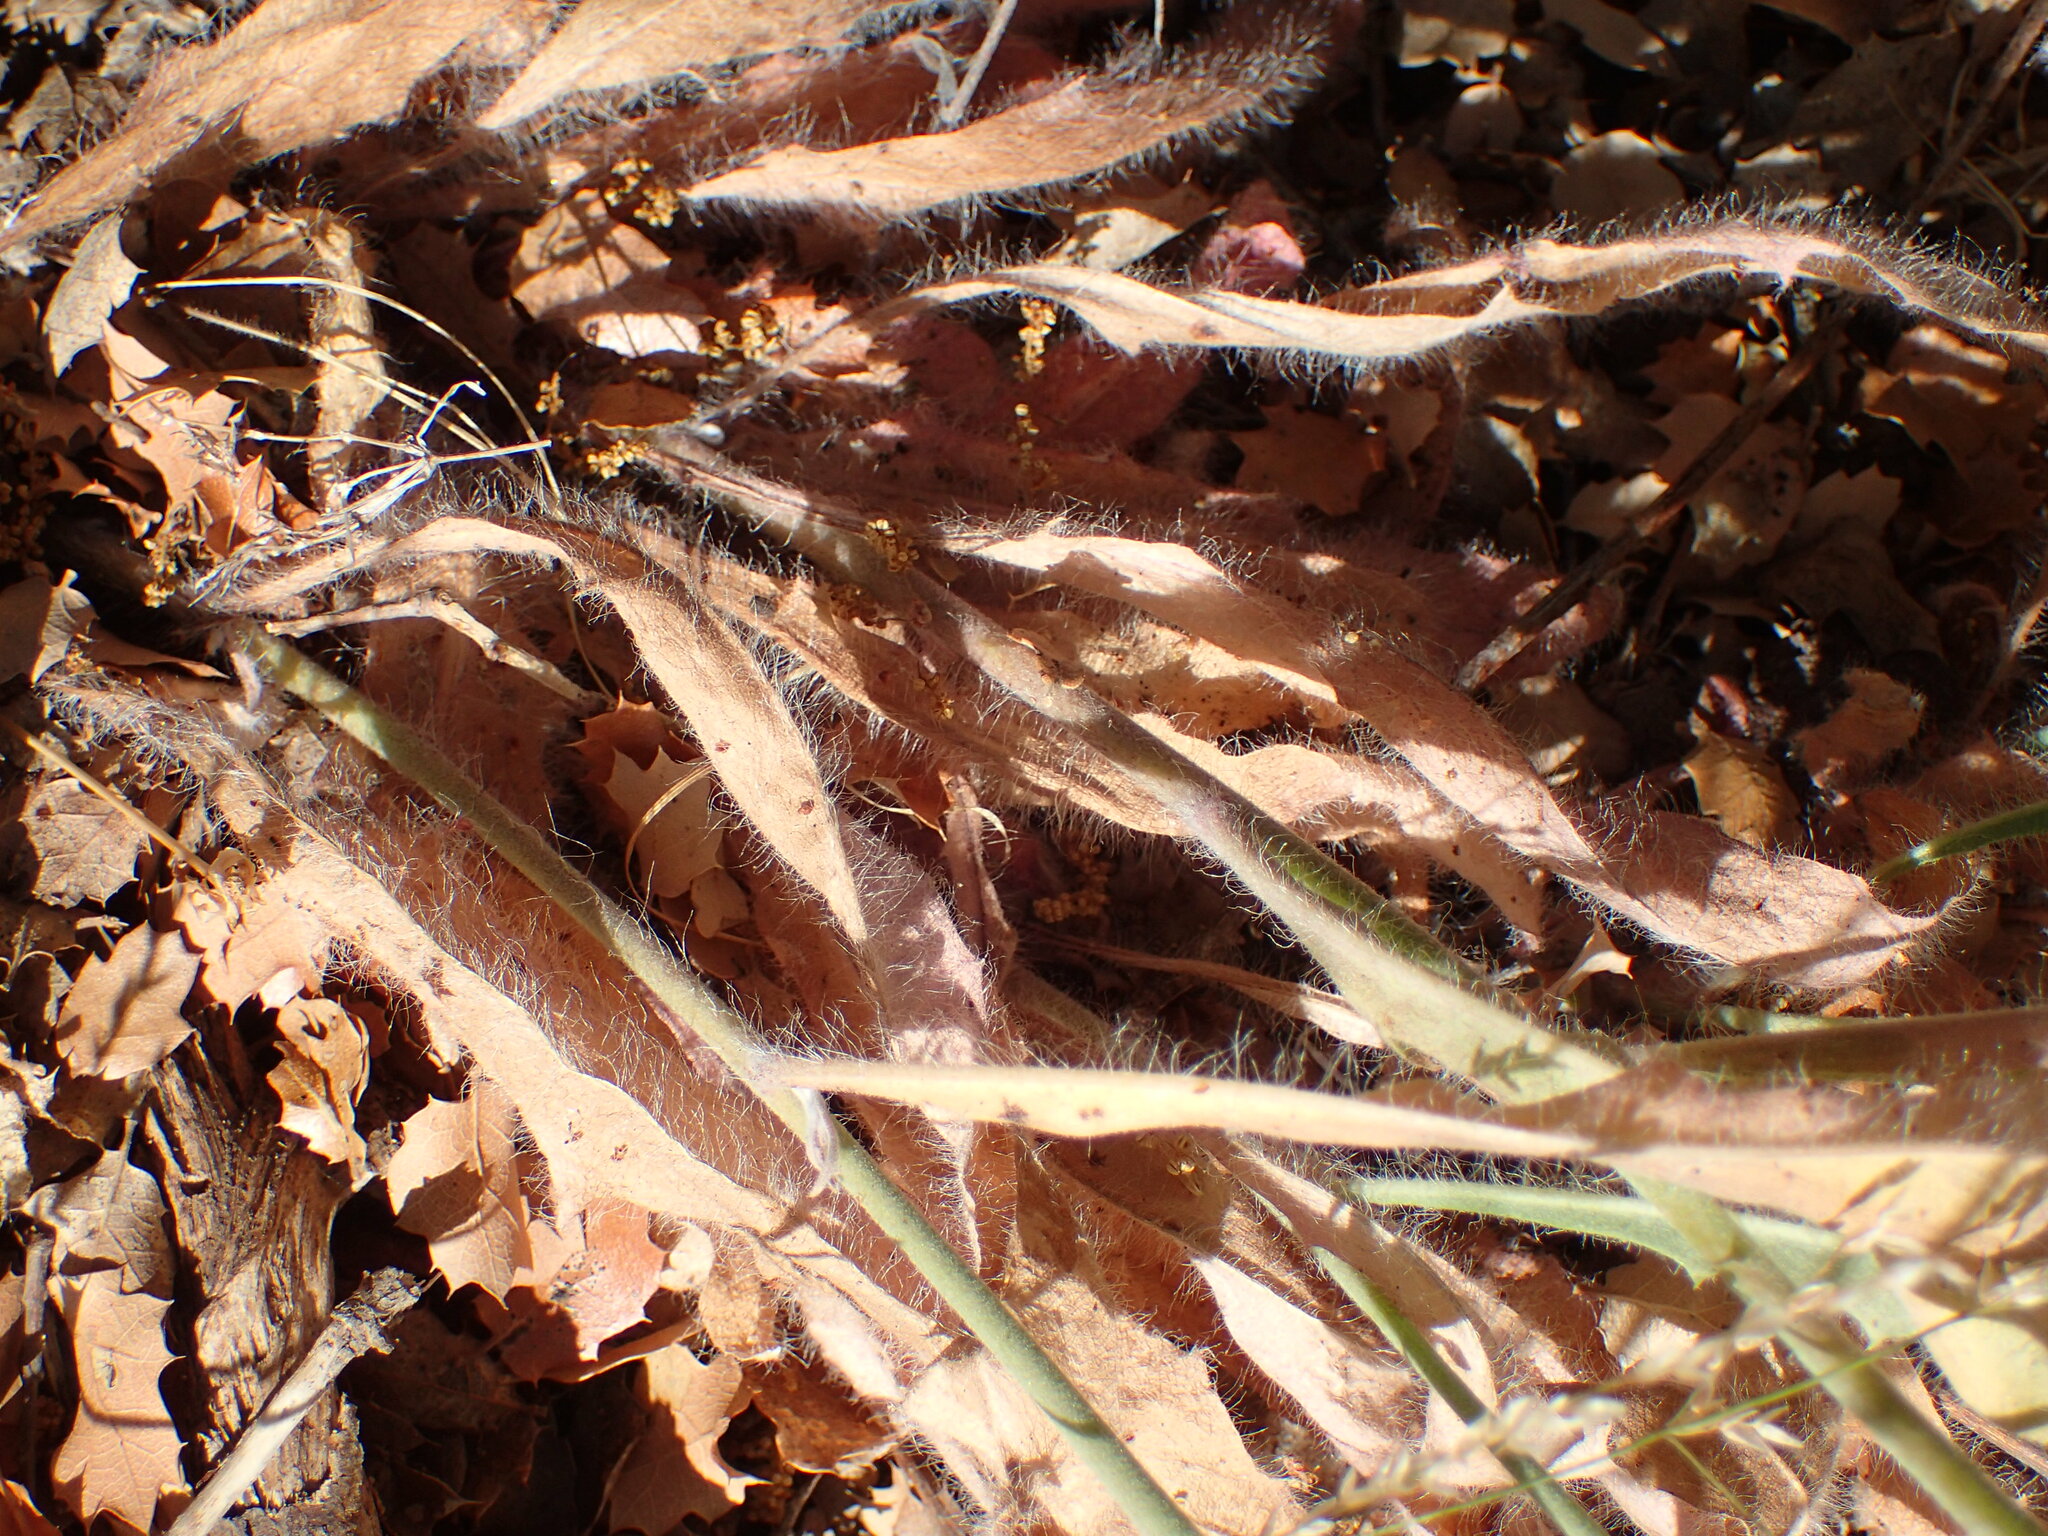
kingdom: Plantae
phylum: Tracheophyta
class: Magnoliopsida
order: Asterales
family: Asteraceae
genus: Hieracium
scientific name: Hieracium argutum
